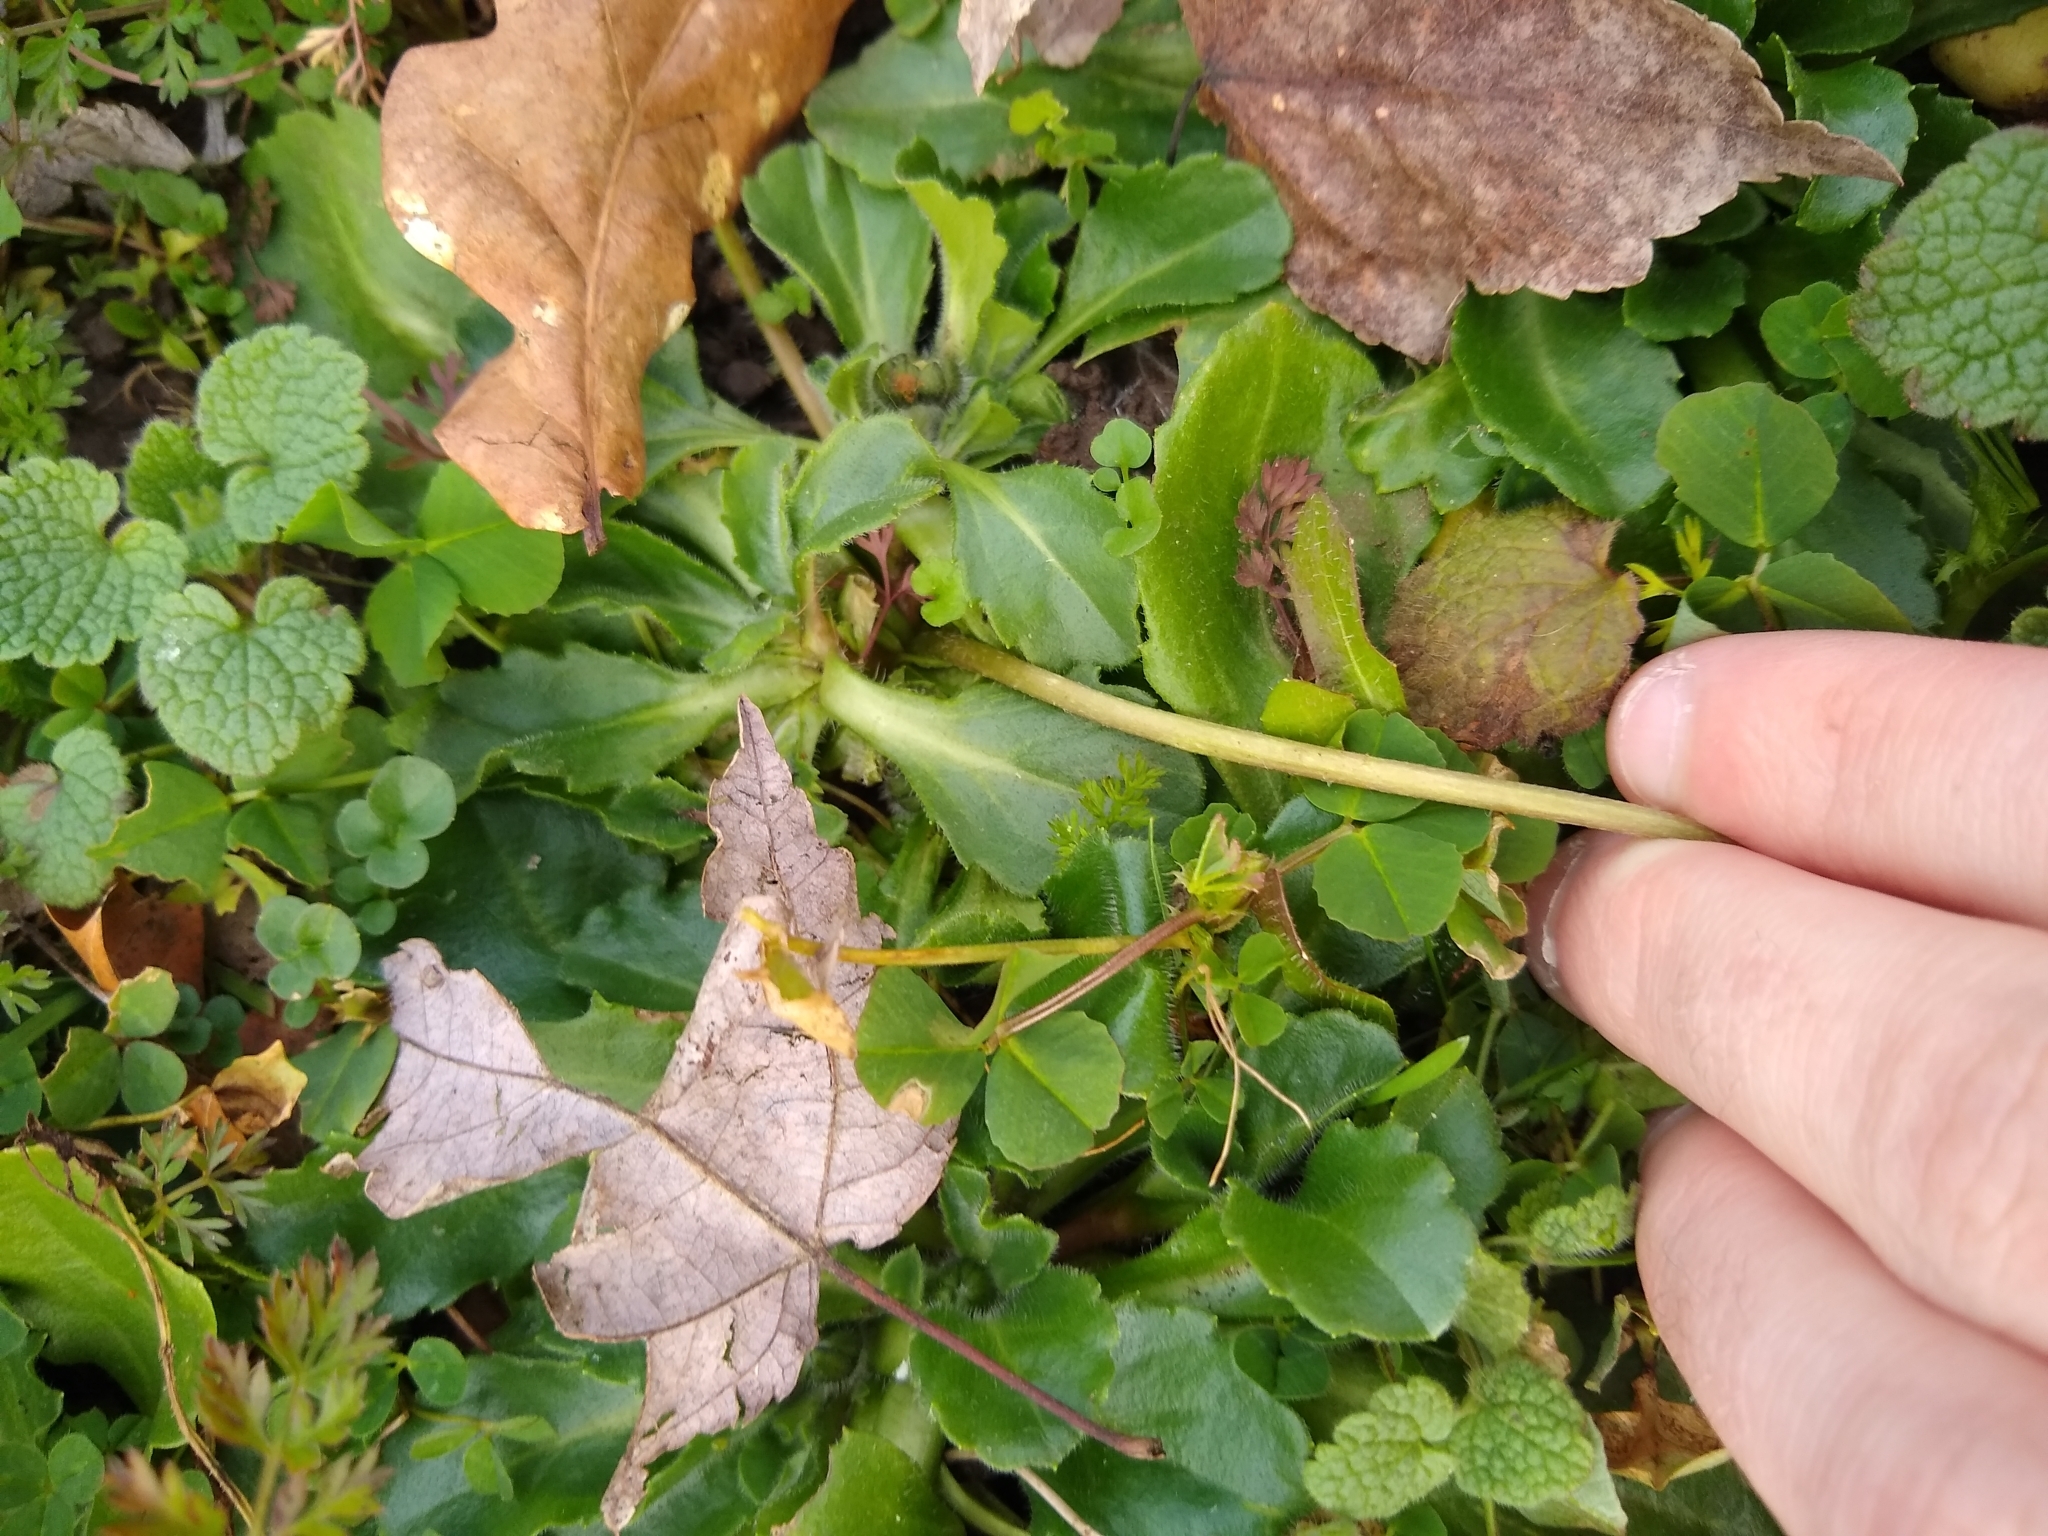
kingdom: Plantae
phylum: Tracheophyta
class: Magnoliopsida
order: Asterales
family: Asteraceae
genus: Bellis
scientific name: Bellis perennis
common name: Lawndaisy
